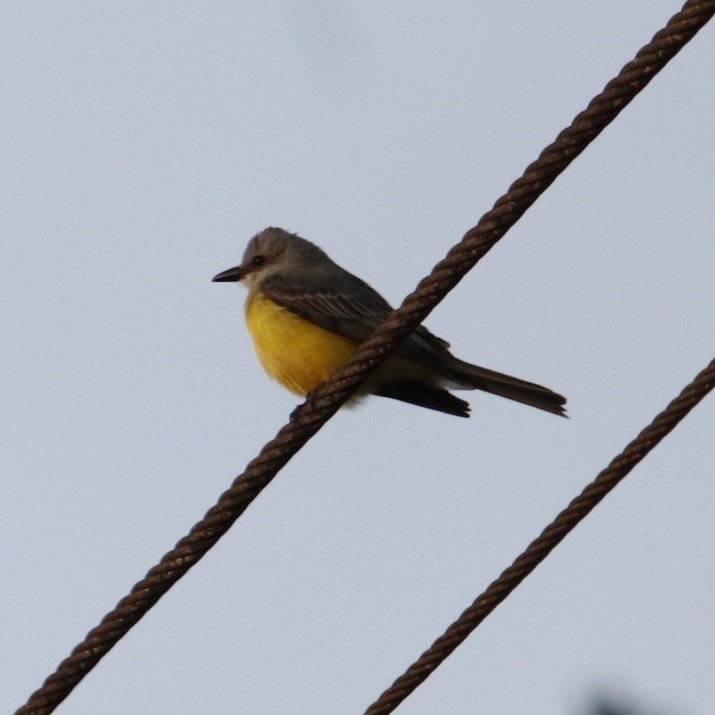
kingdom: Animalia
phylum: Chordata
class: Aves
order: Passeriformes
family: Tyrannidae
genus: Tyrannus
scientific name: Tyrannus melancholicus
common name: Tropical kingbird
